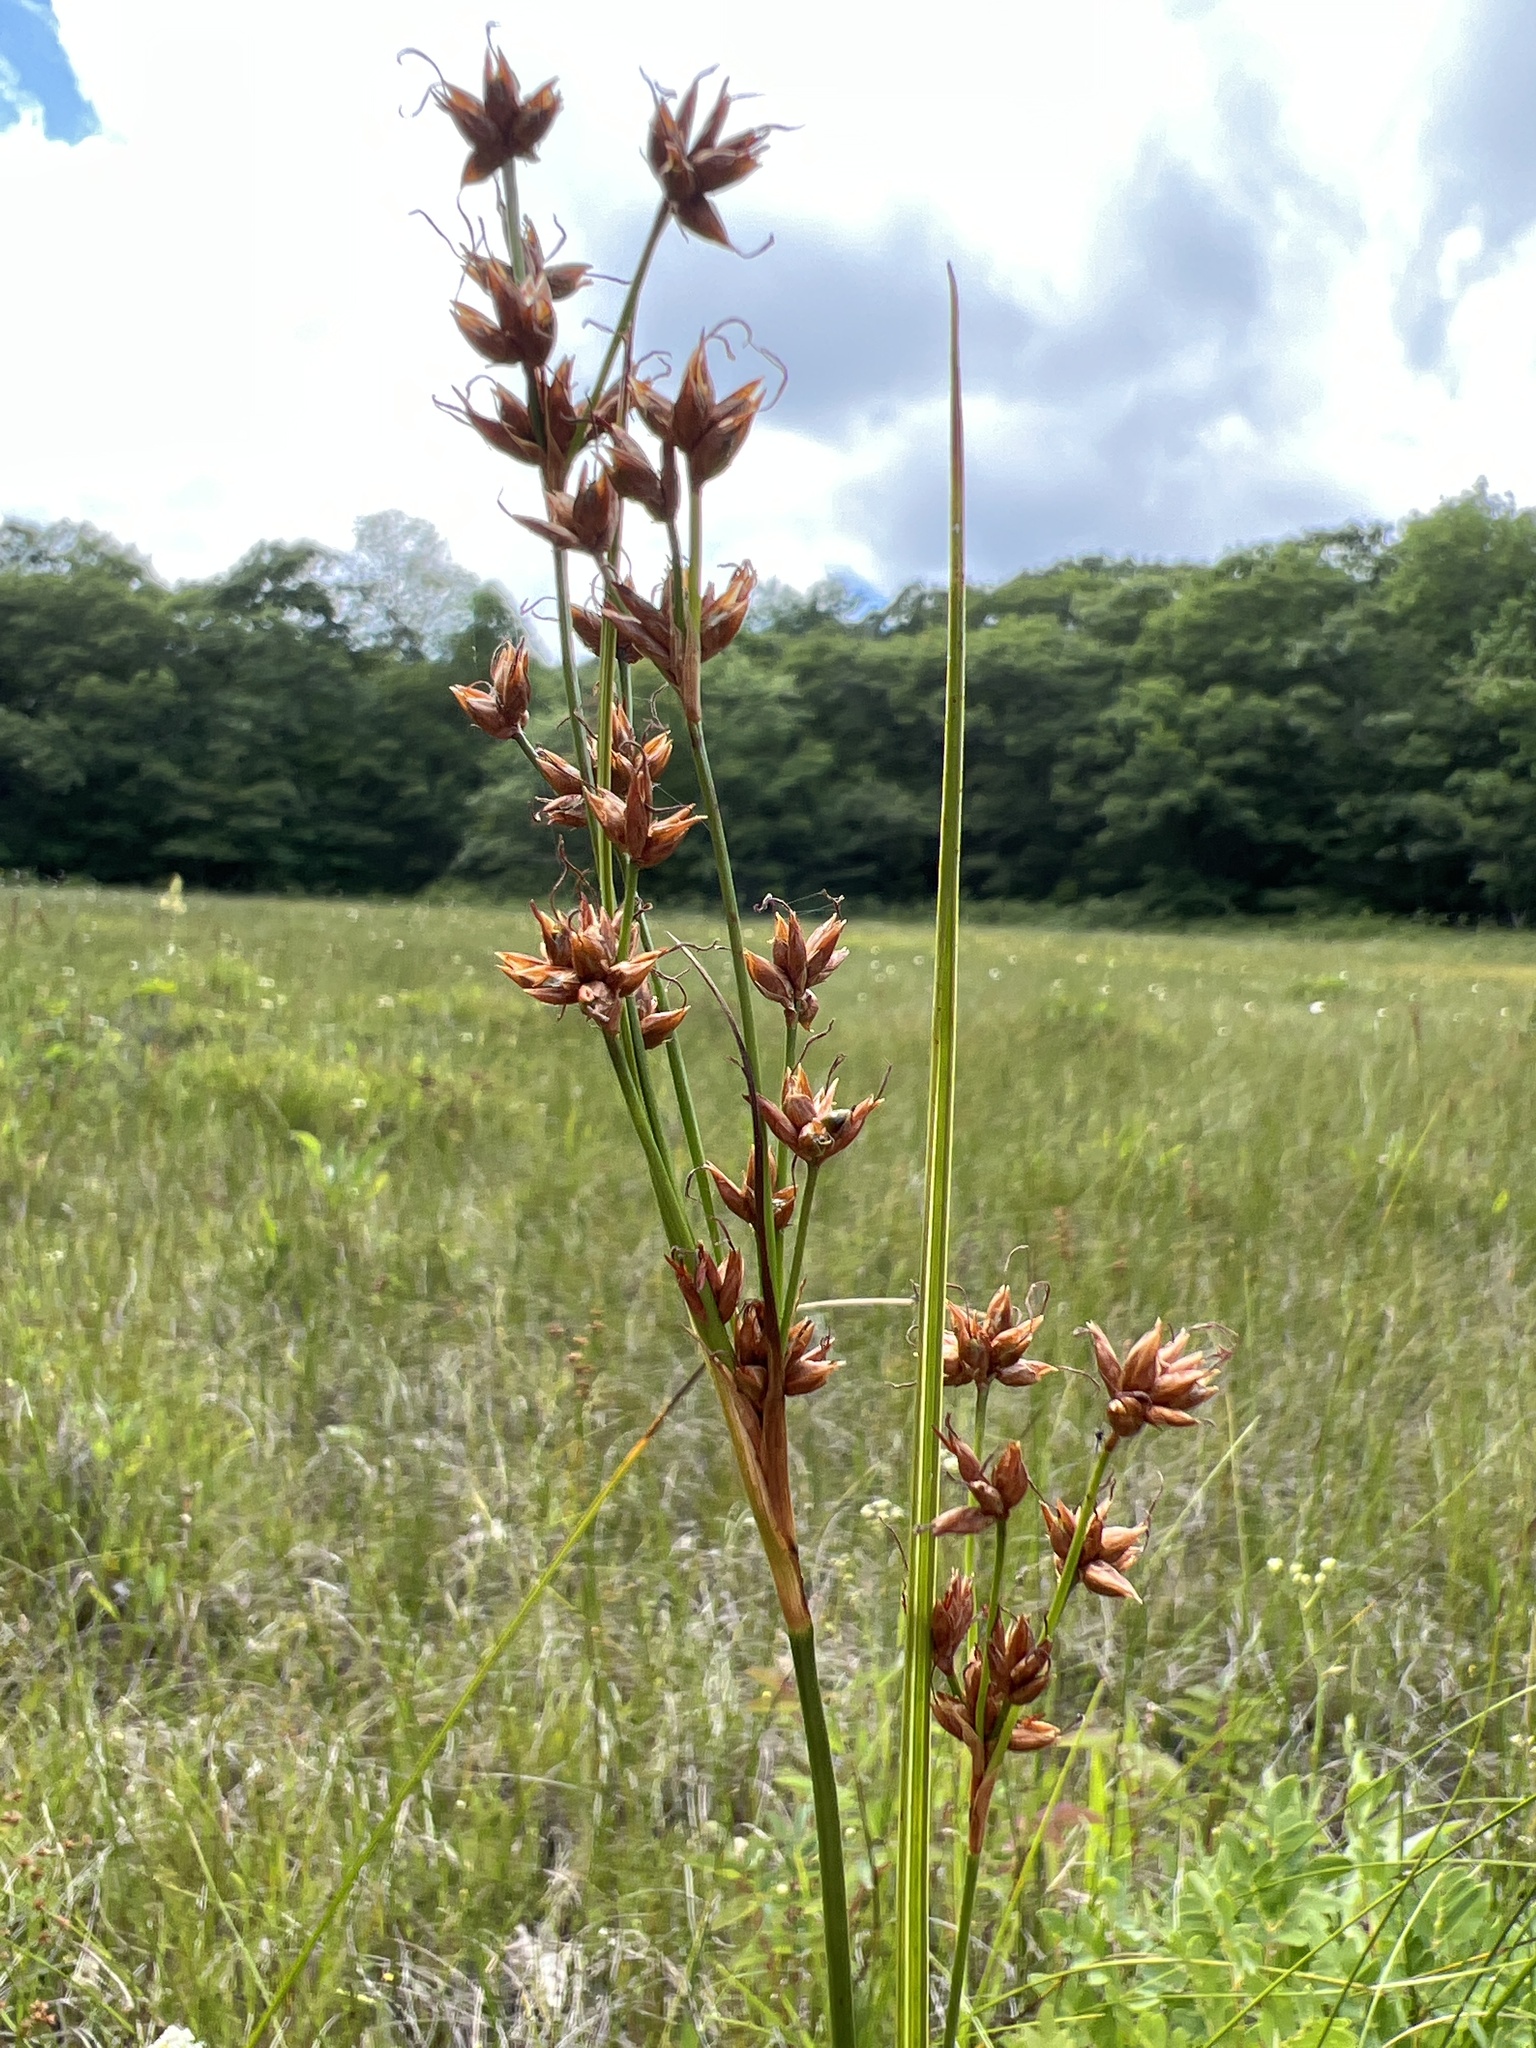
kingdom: Plantae
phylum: Tracheophyta
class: Liliopsida
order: Poales
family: Cyperaceae
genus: Cladium
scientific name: Cladium mariscoides
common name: Smooth sawgrass
